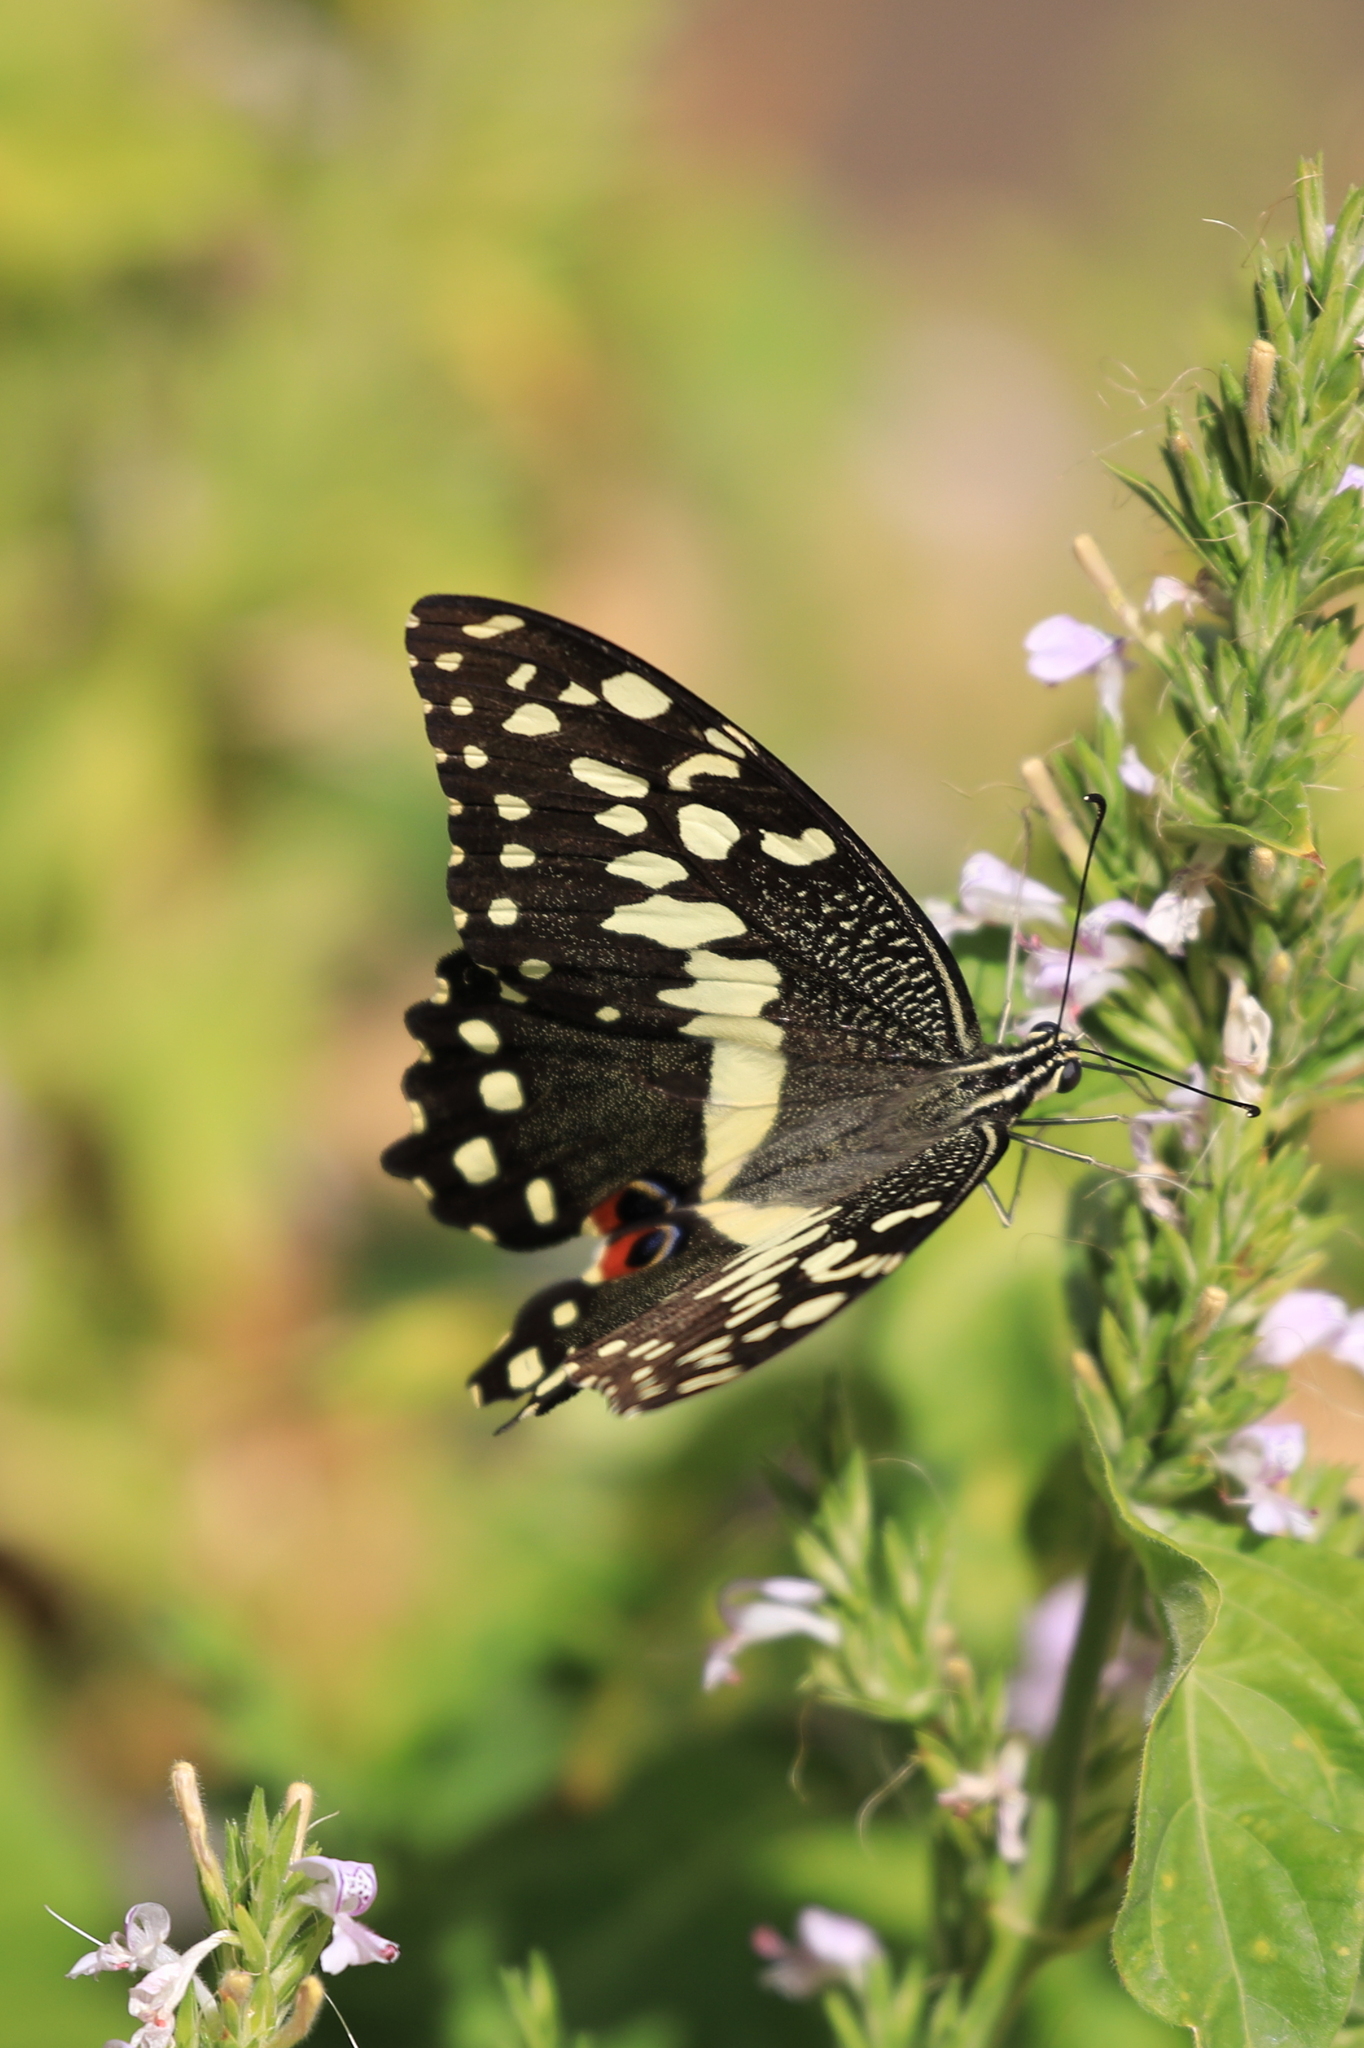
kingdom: Animalia
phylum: Arthropoda
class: Insecta
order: Lepidoptera
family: Papilionidae
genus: Papilio
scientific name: Papilio demodocus
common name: Christmas butterfly
